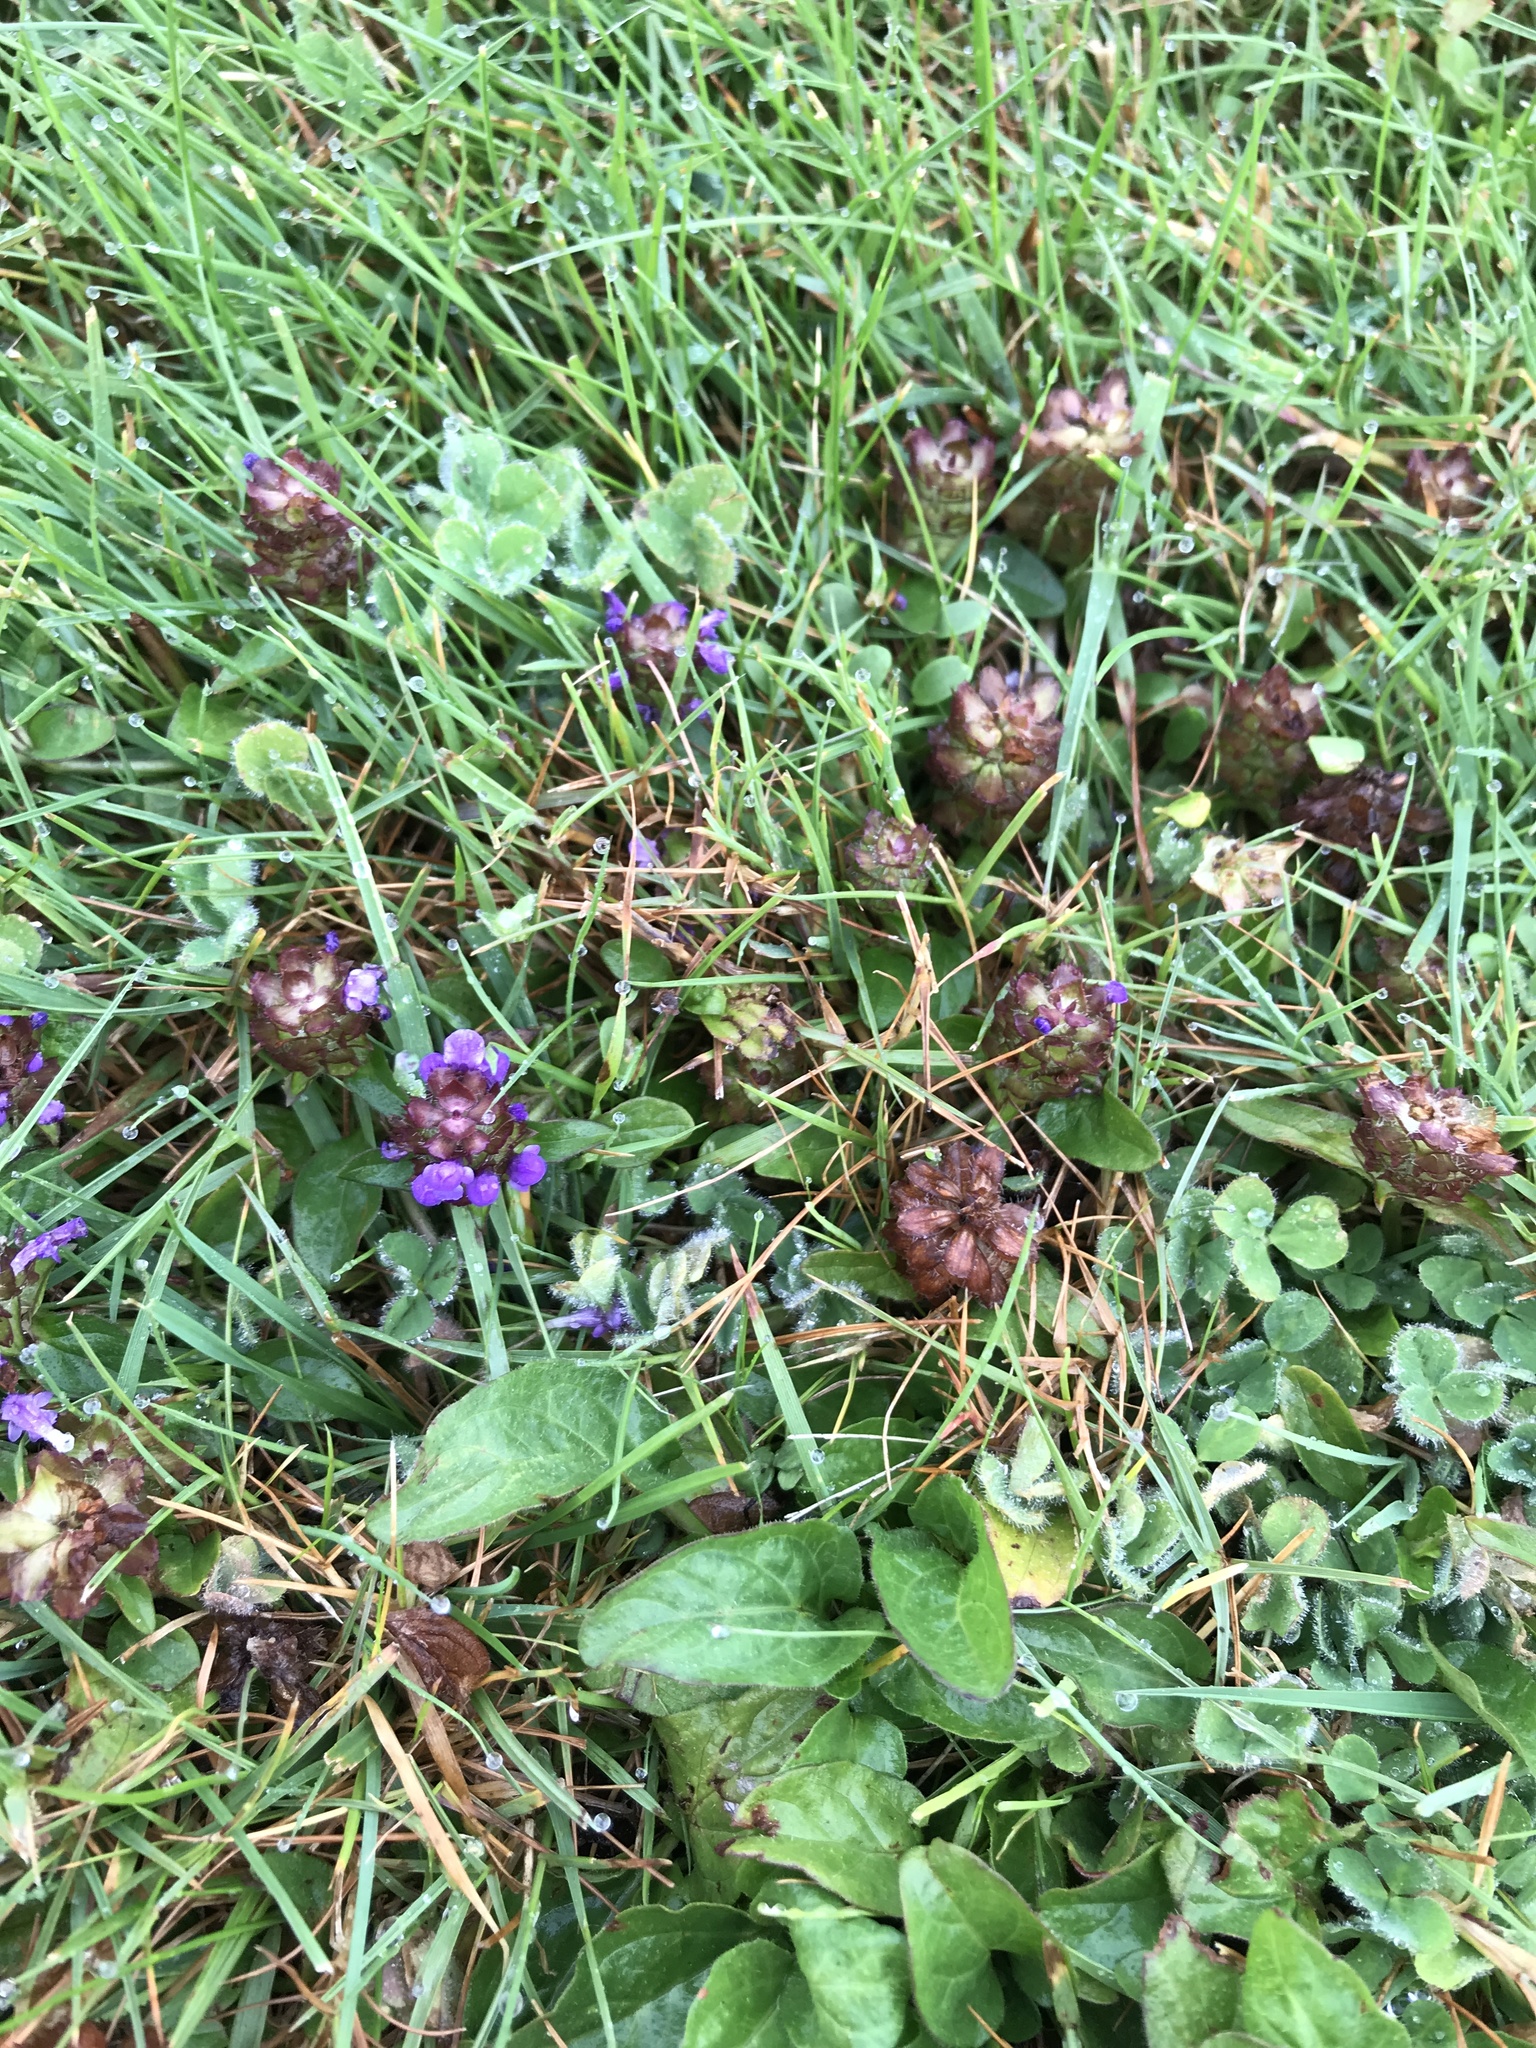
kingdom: Plantae
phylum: Tracheophyta
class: Magnoliopsida
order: Lamiales
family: Lamiaceae
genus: Prunella
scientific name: Prunella vulgaris
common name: Heal-all
